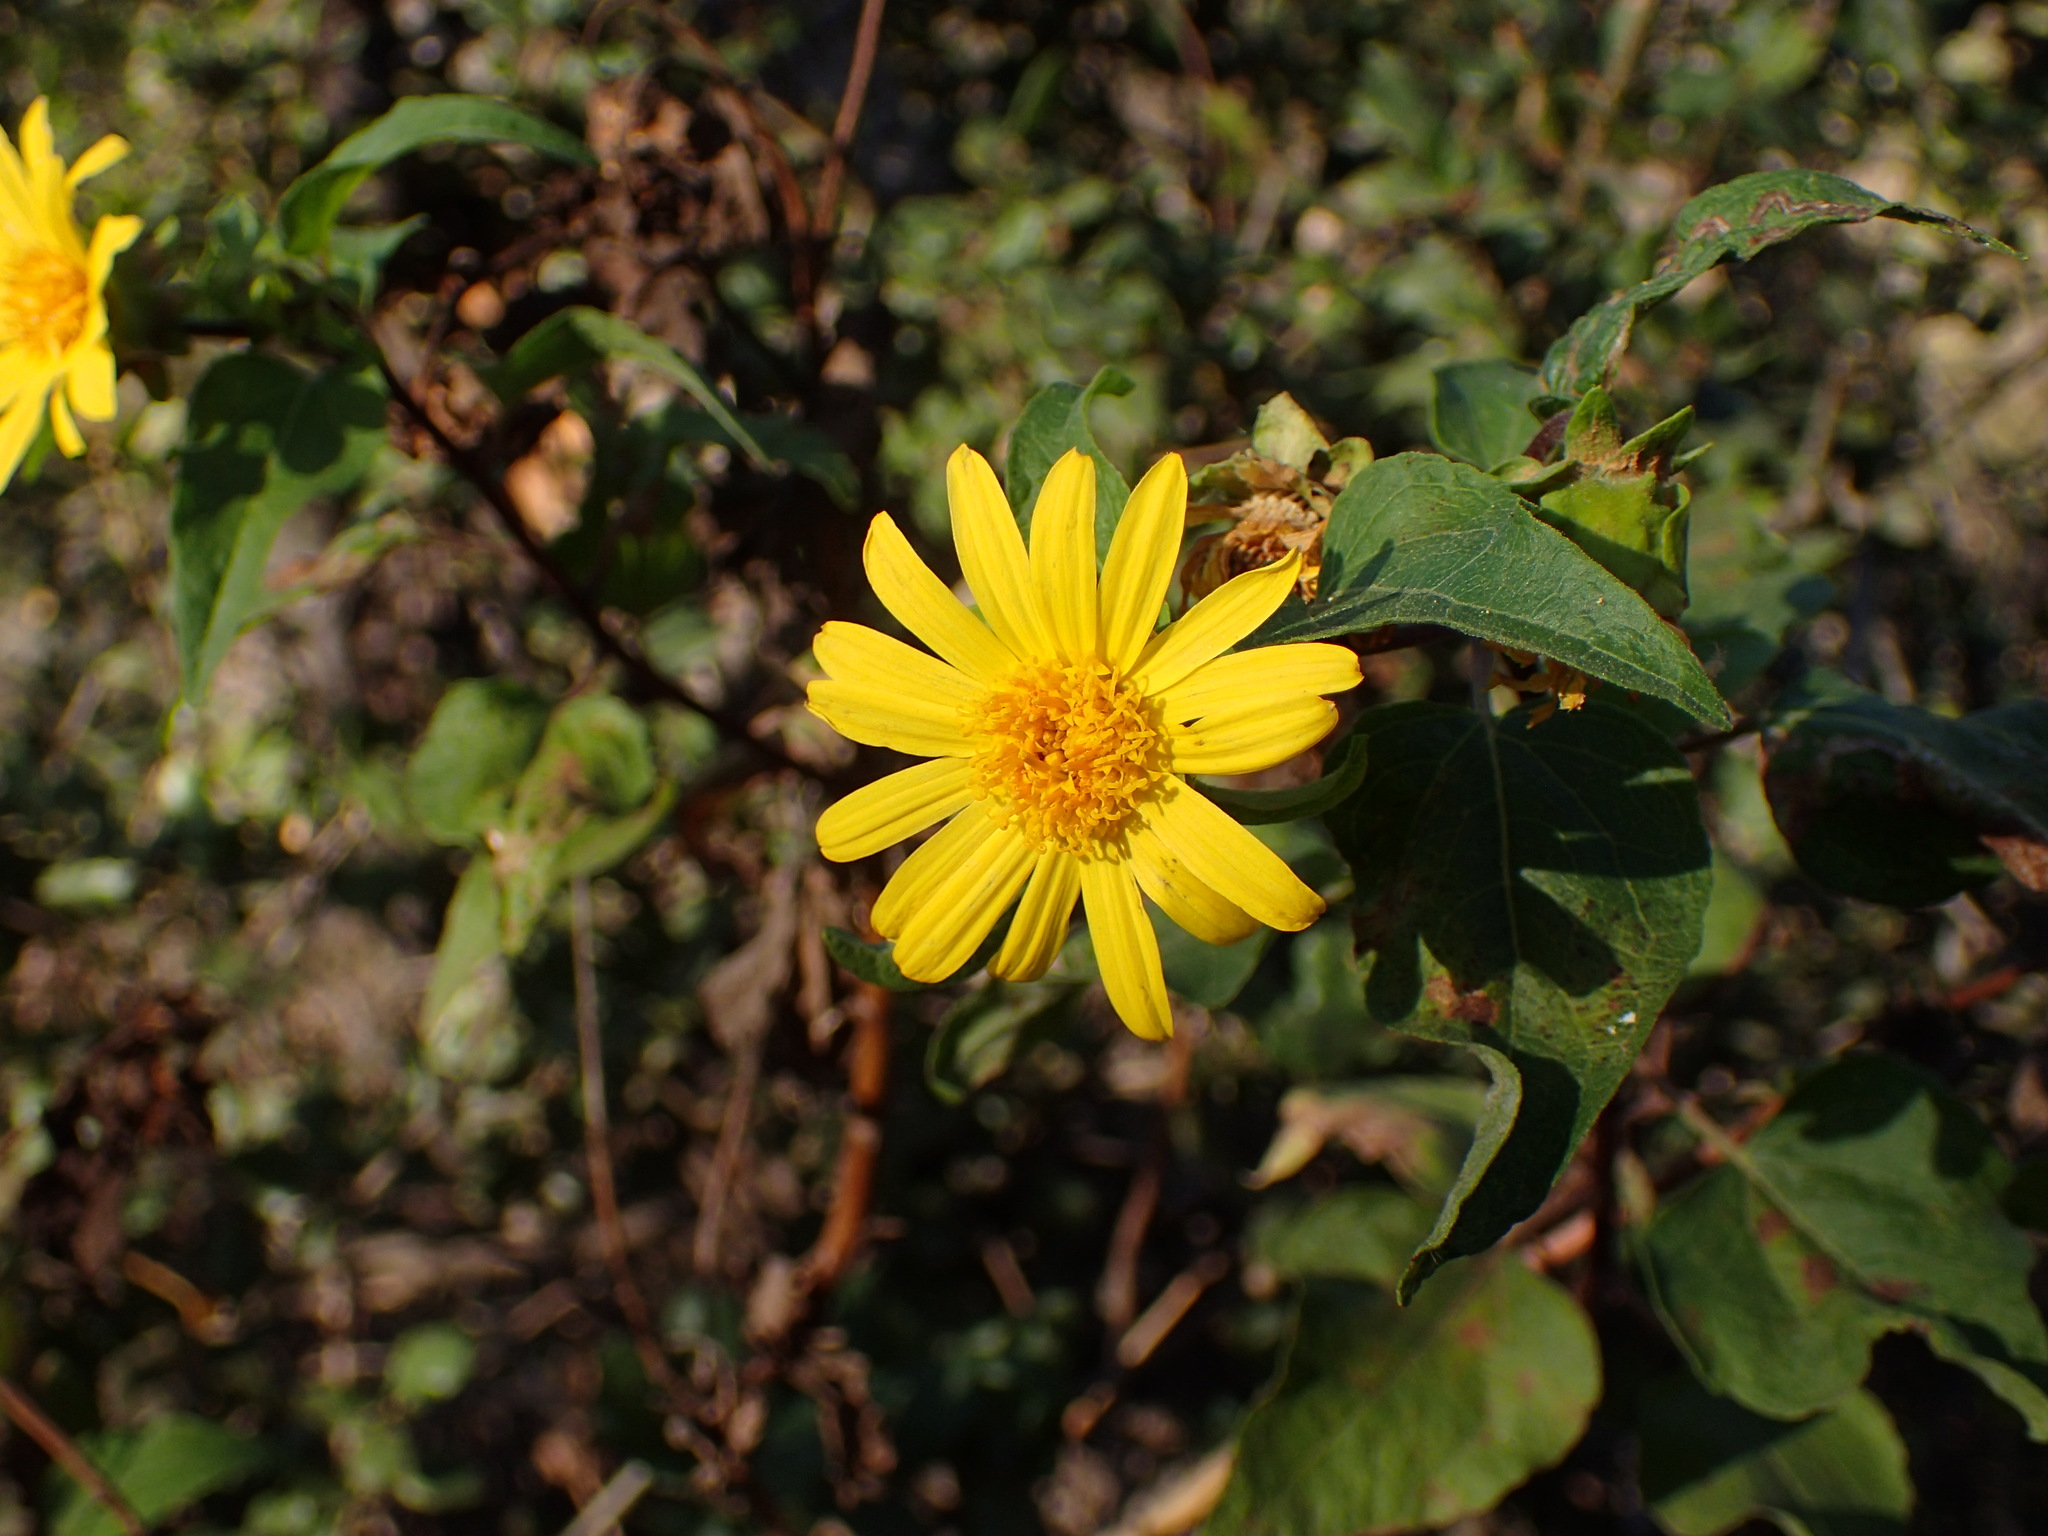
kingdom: Plantae
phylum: Tracheophyta
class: Magnoliopsida
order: Asterales
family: Asteraceae
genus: Venegasia
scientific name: Venegasia carpesioides
